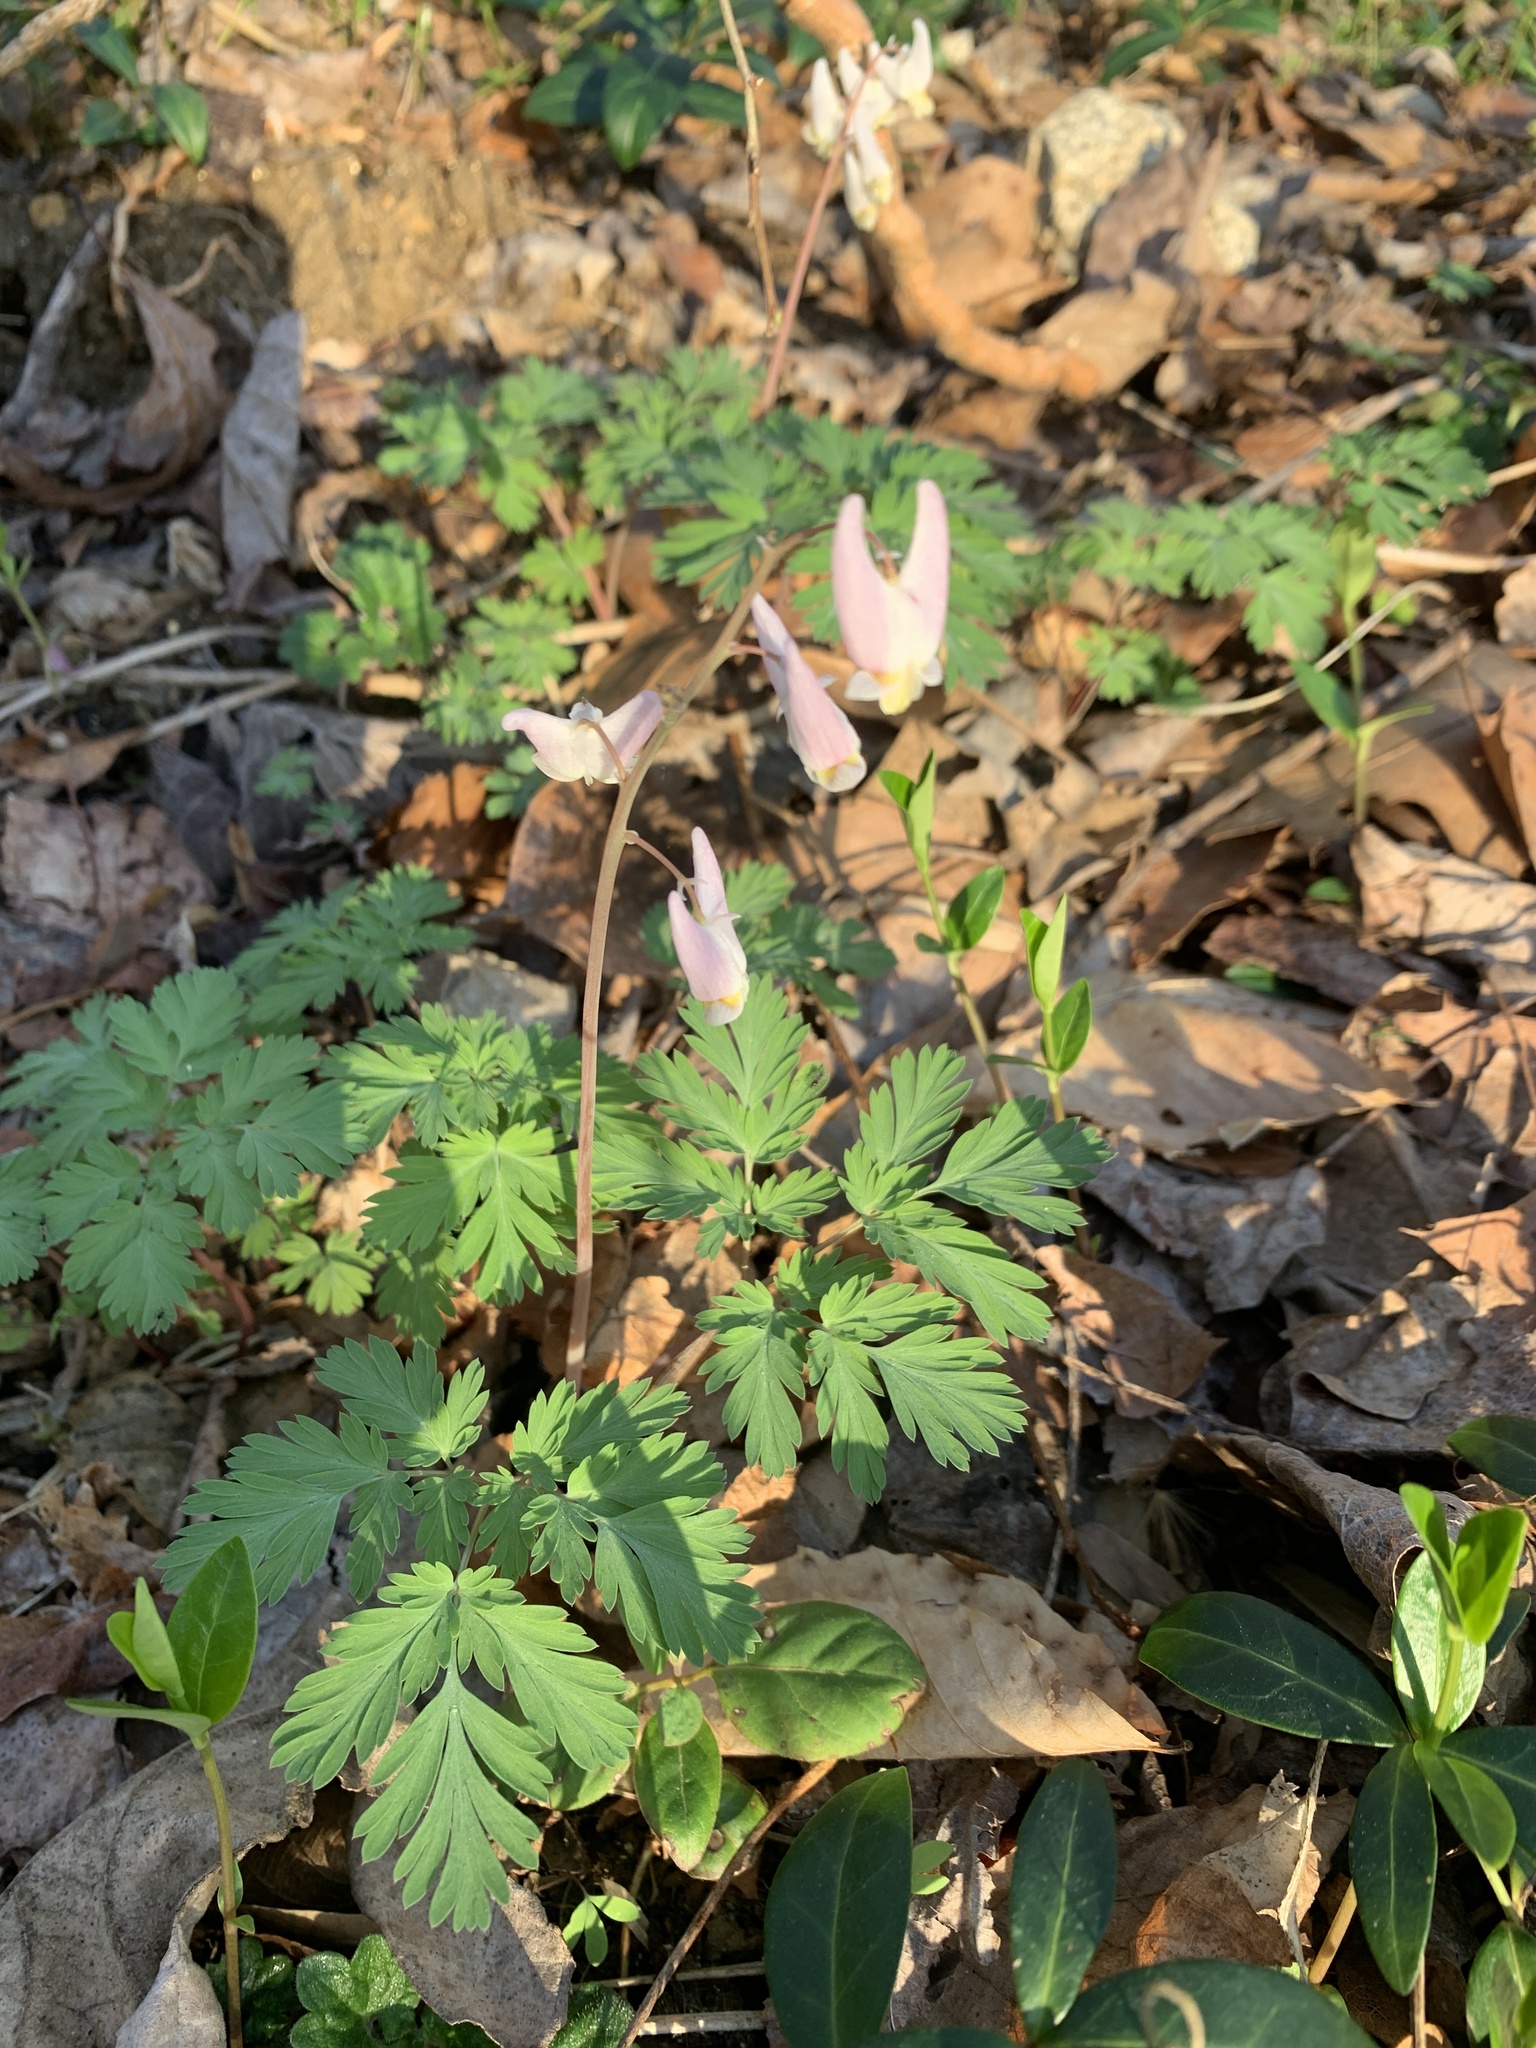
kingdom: Plantae
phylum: Tracheophyta
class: Magnoliopsida
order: Ranunculales
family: Papaveraceae
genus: Dicentra
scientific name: Dicentra cucullaria
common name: Dutchman's breeches
